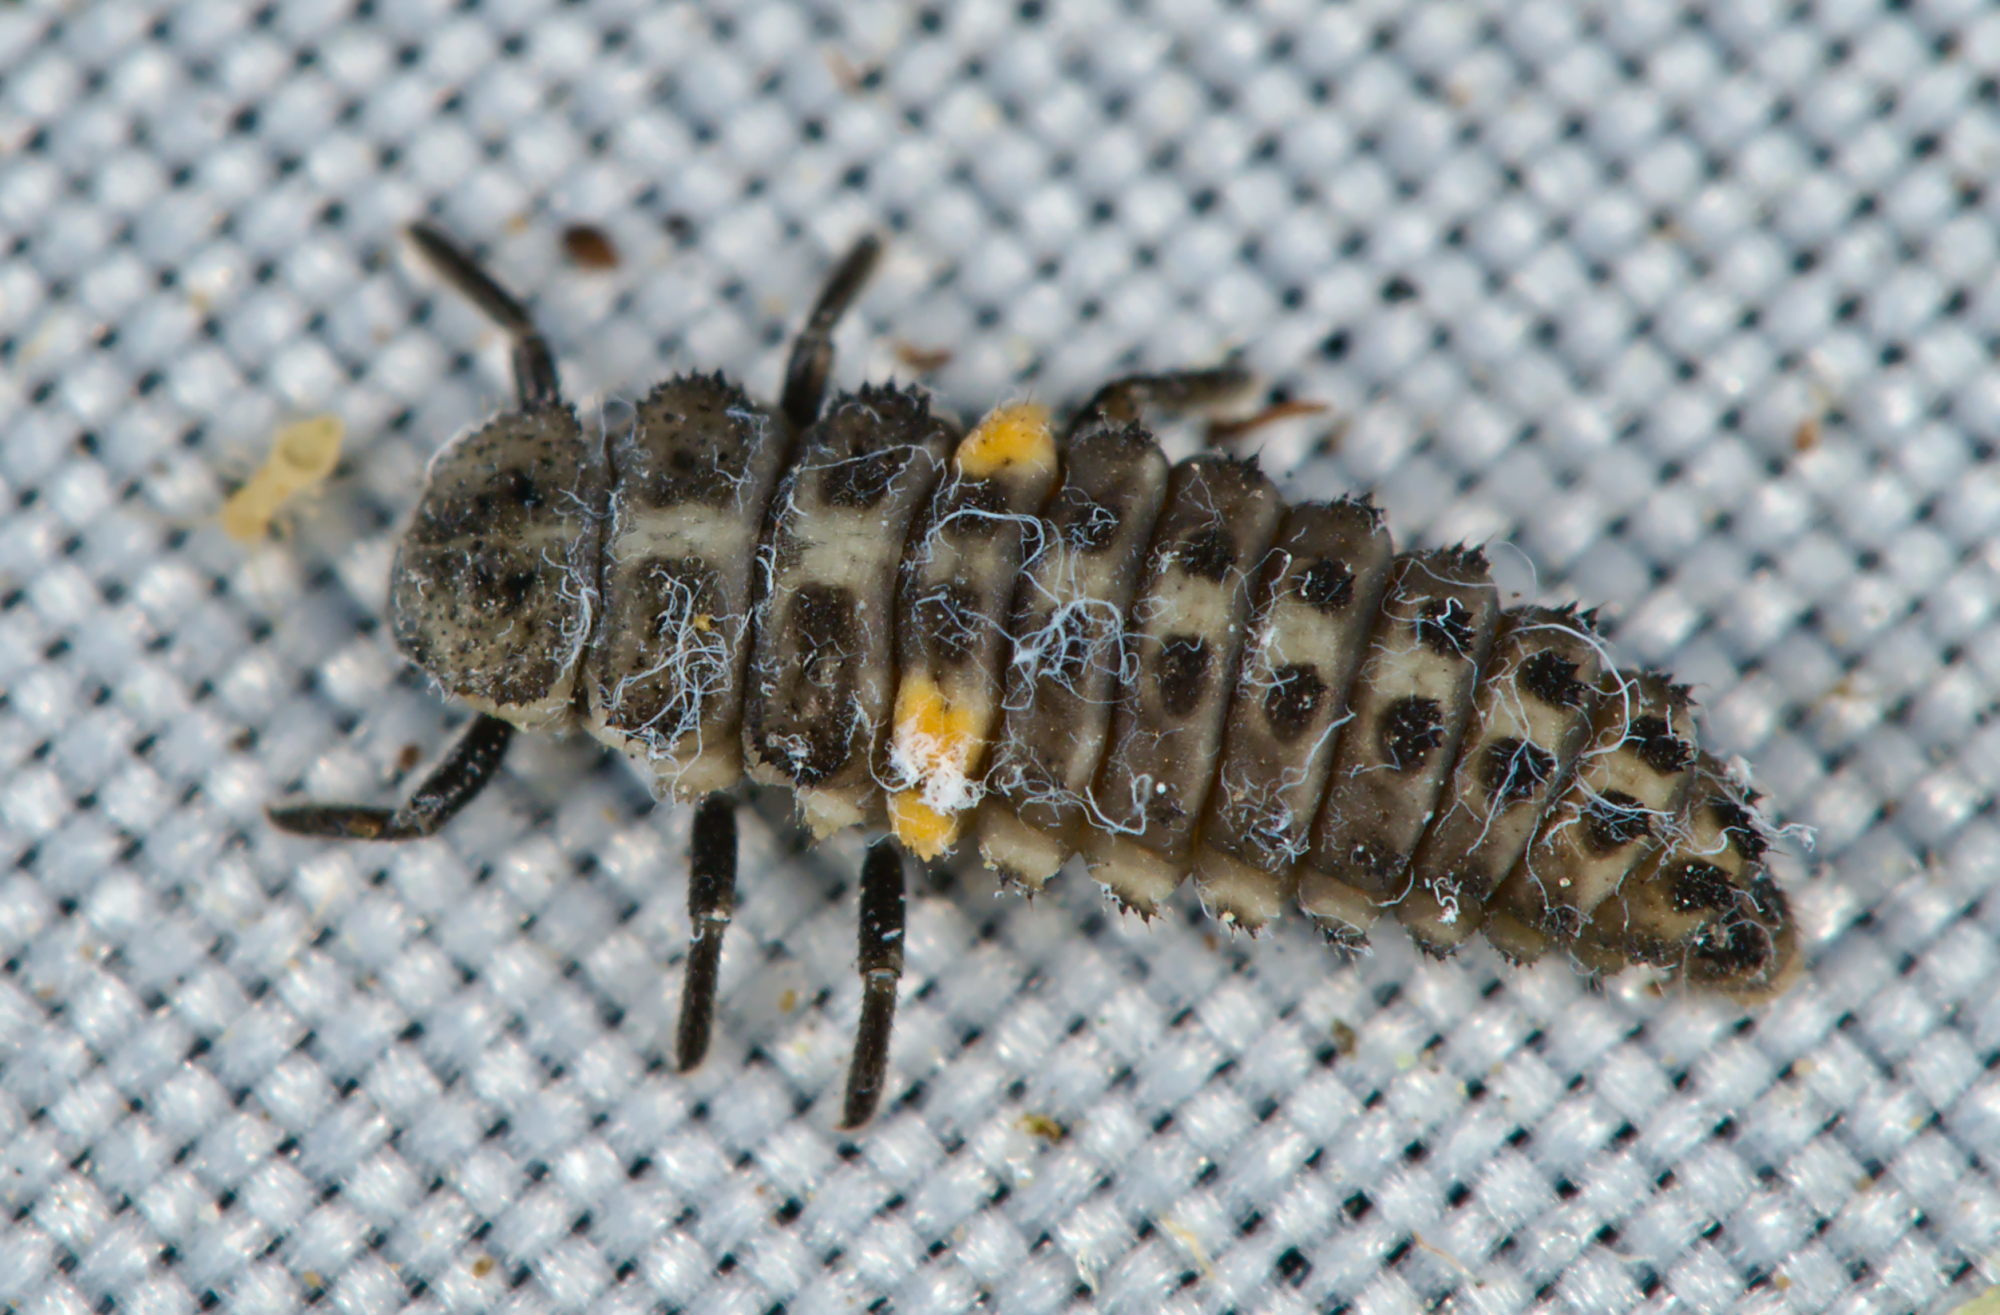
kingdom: Animalia
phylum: Arthropoda
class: Insecta
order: Coleoptera
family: Coccinellidae
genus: Aphidecta
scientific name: Aphidecta obliterata
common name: Larch ladybird
